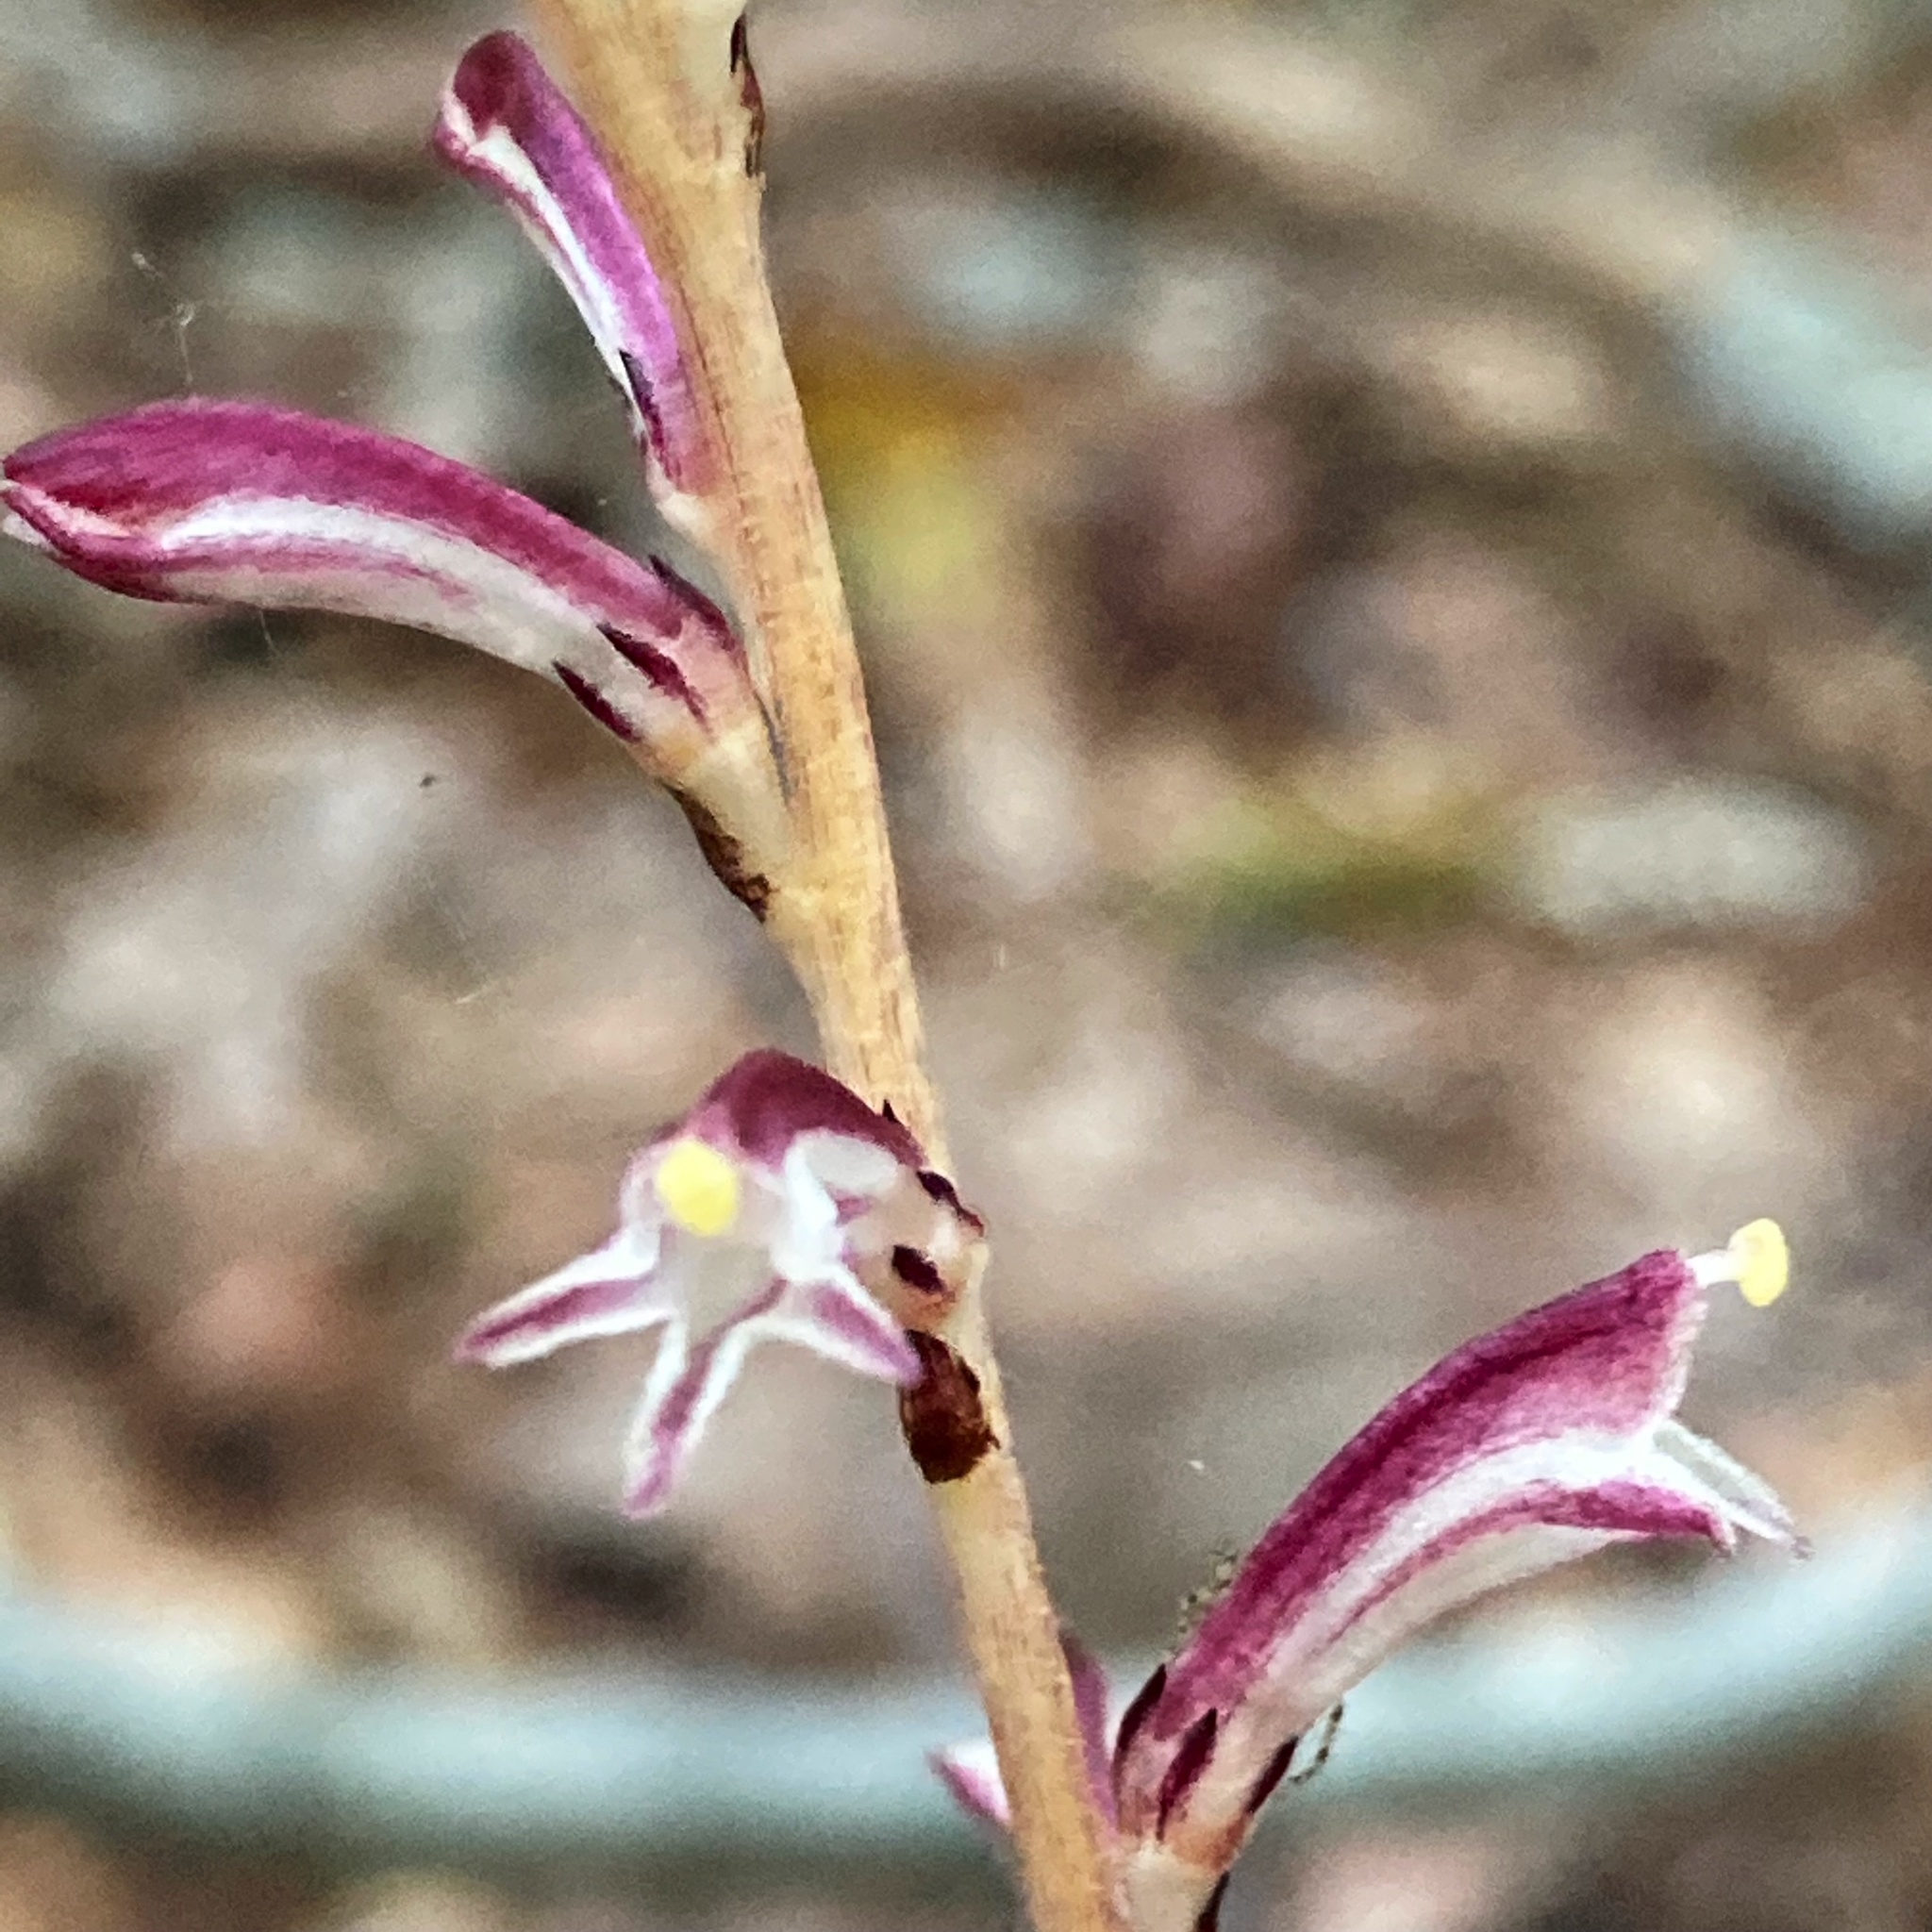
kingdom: Plantae
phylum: Tracheophyta
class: Magnoliopsida
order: Lamiales
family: Orobanchaceae
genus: Epifagus
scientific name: Epifagus virginiana
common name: Beechdrops
